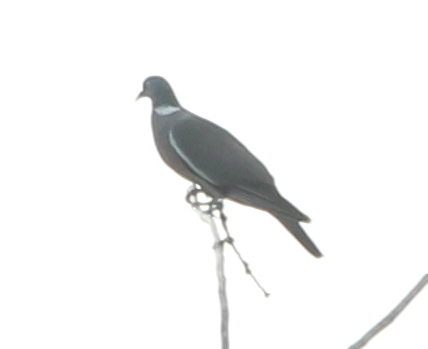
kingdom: Animalia
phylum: Chordata
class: Aves
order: Columbiformes
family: Columbidae
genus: Columba
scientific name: Columba palumbus
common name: Common wood pigeon
